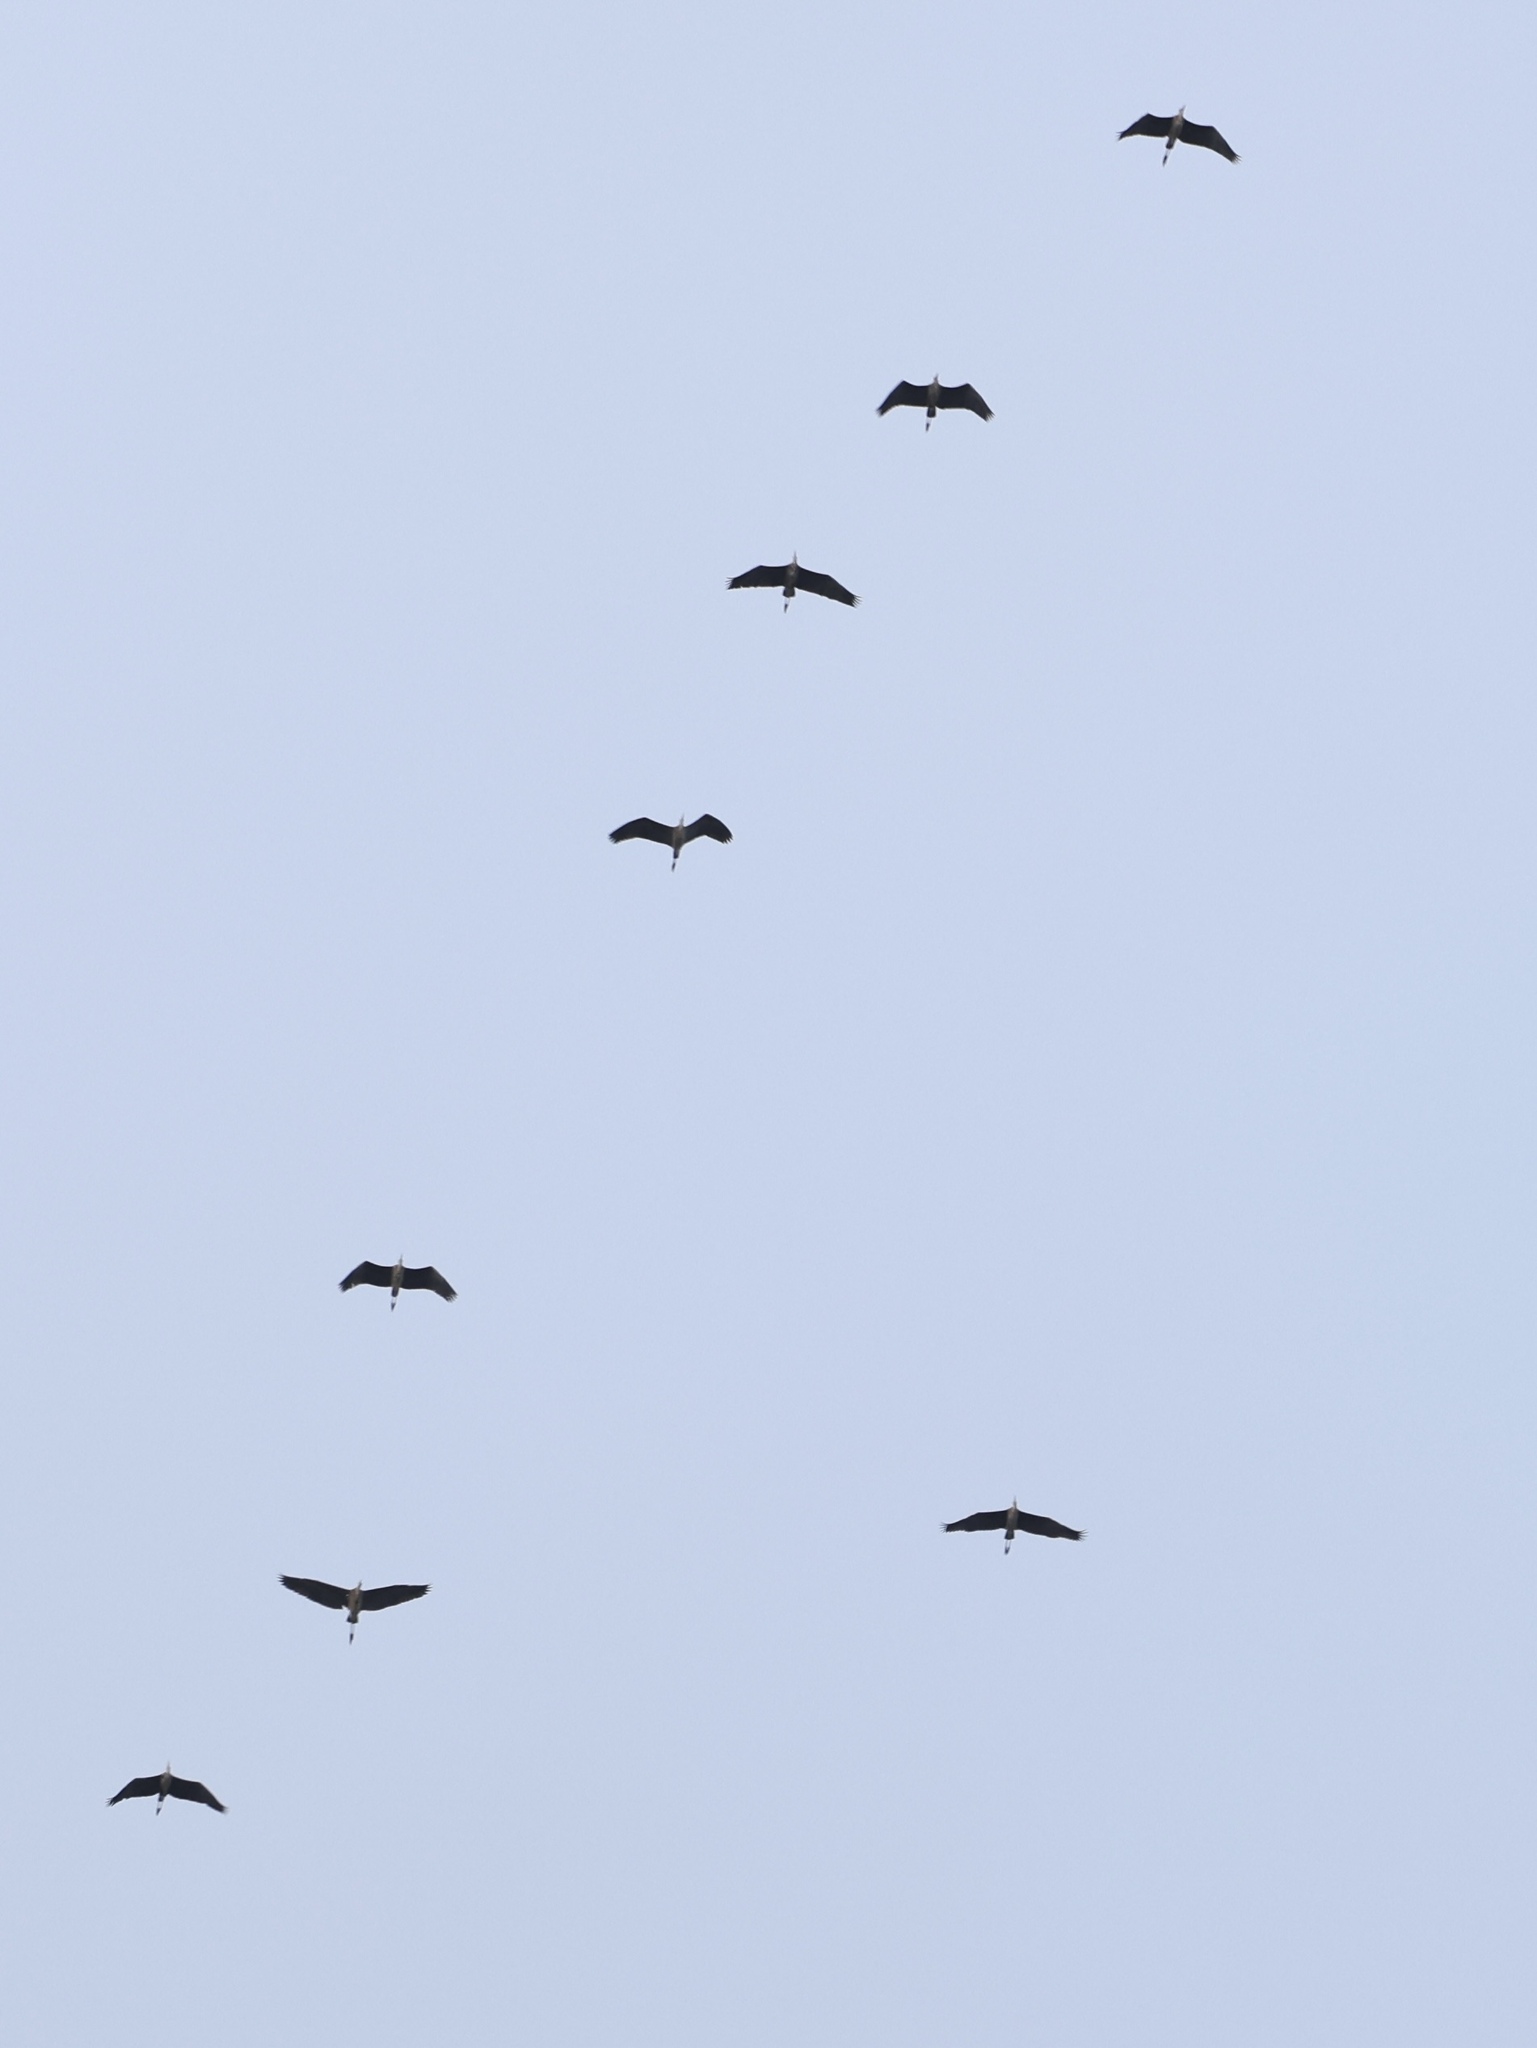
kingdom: Animalia
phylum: Chordata
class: Aves
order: Gruiformes
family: Gruidae
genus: Grus
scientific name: Grus canadensis
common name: Sandhill crane
